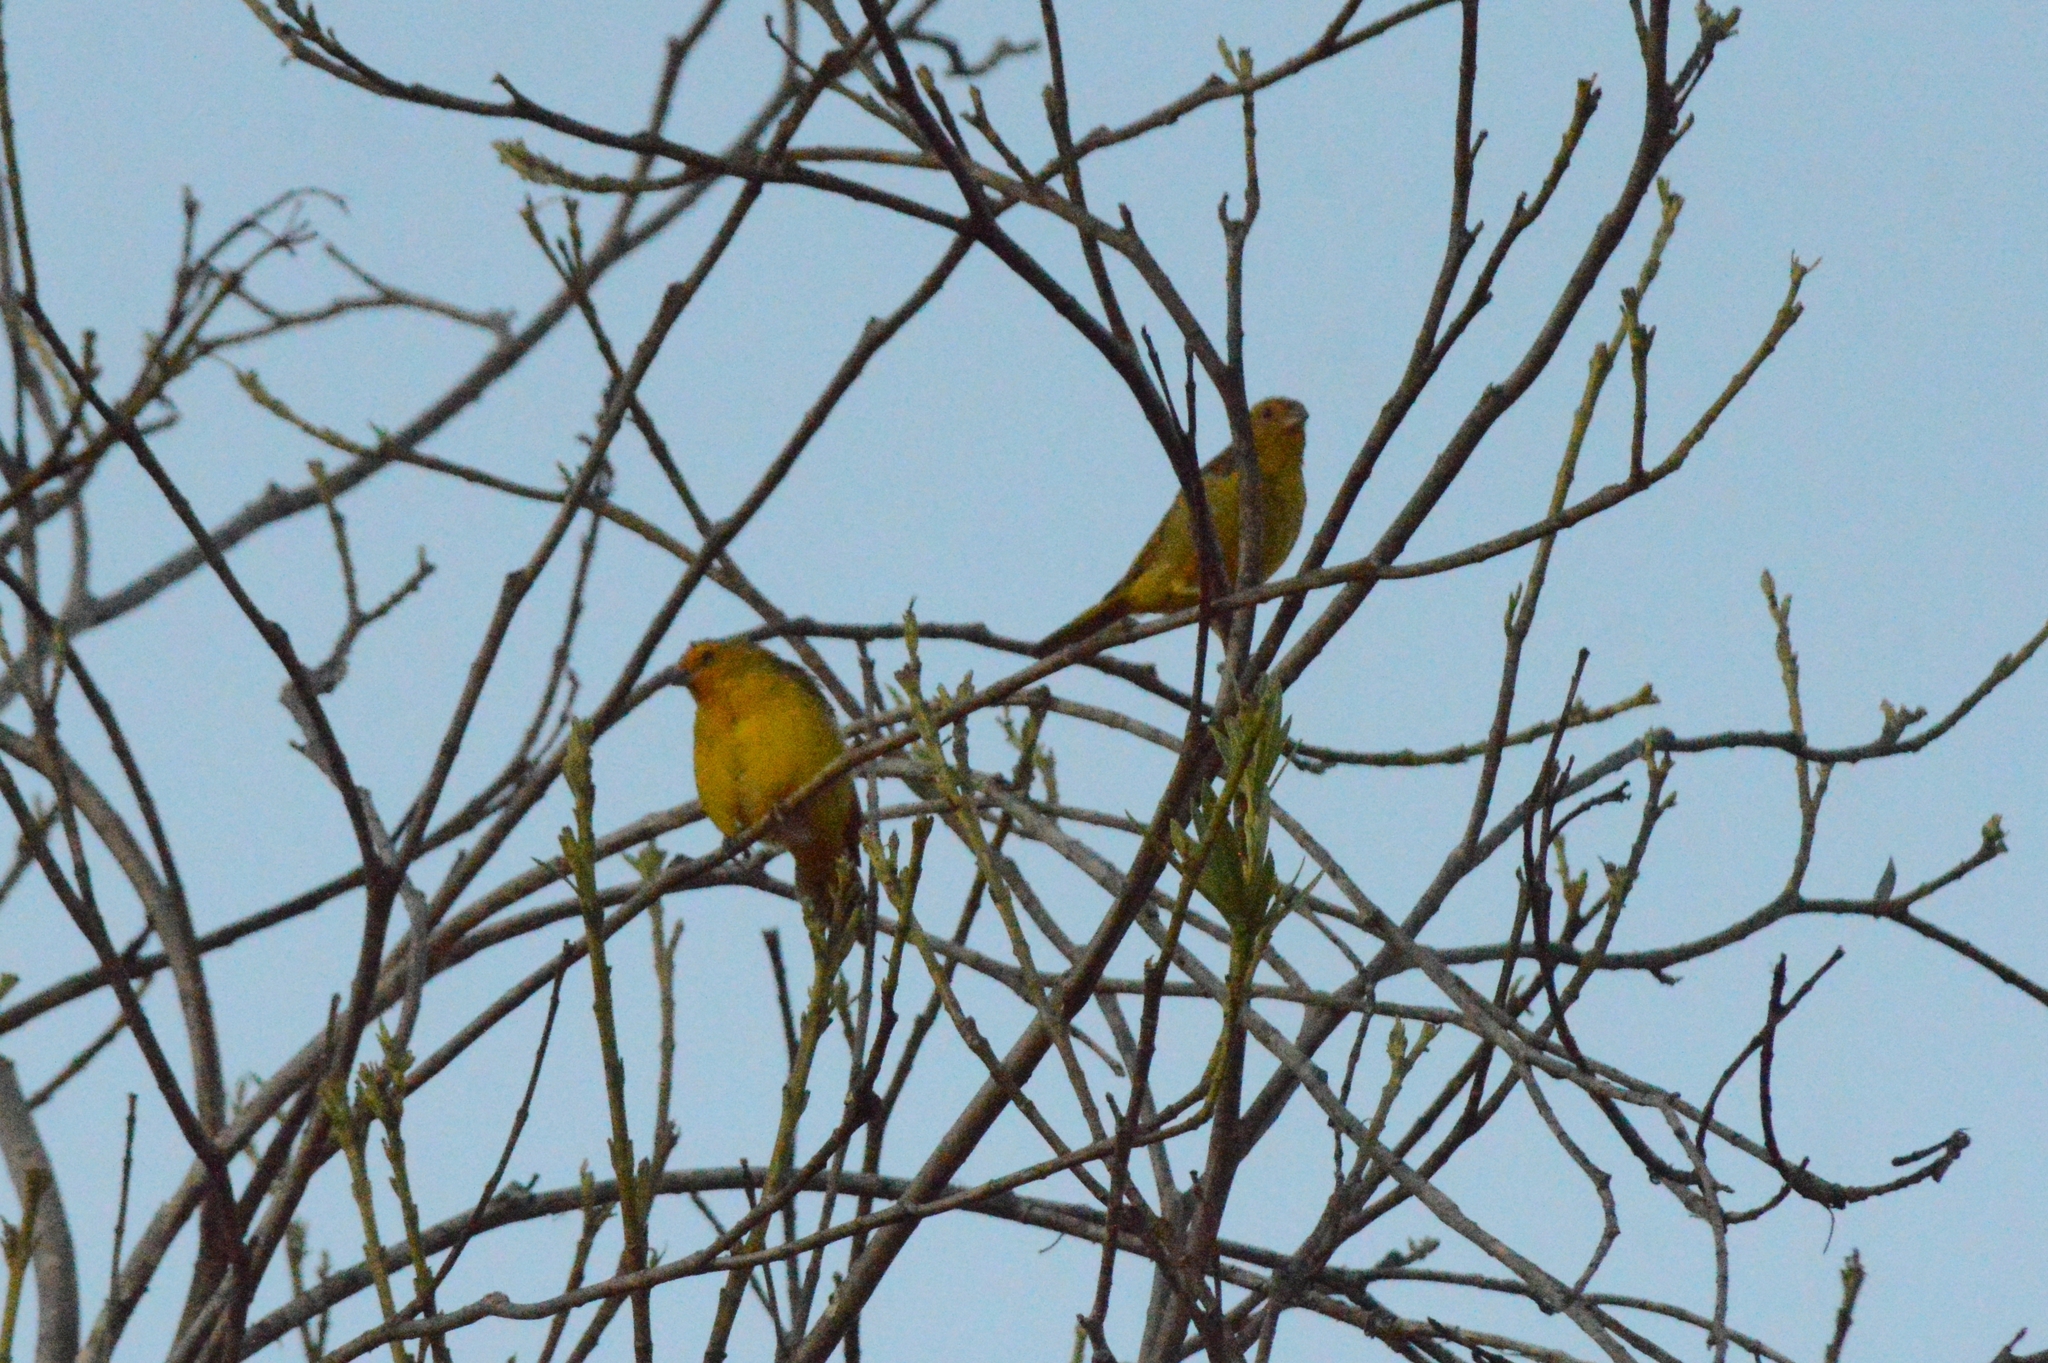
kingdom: Animalia
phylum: Chordata
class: Aves
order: Passeriformes
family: Thraupidae
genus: Sicalis
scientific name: Sicalis flaveola
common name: Saffron finch
